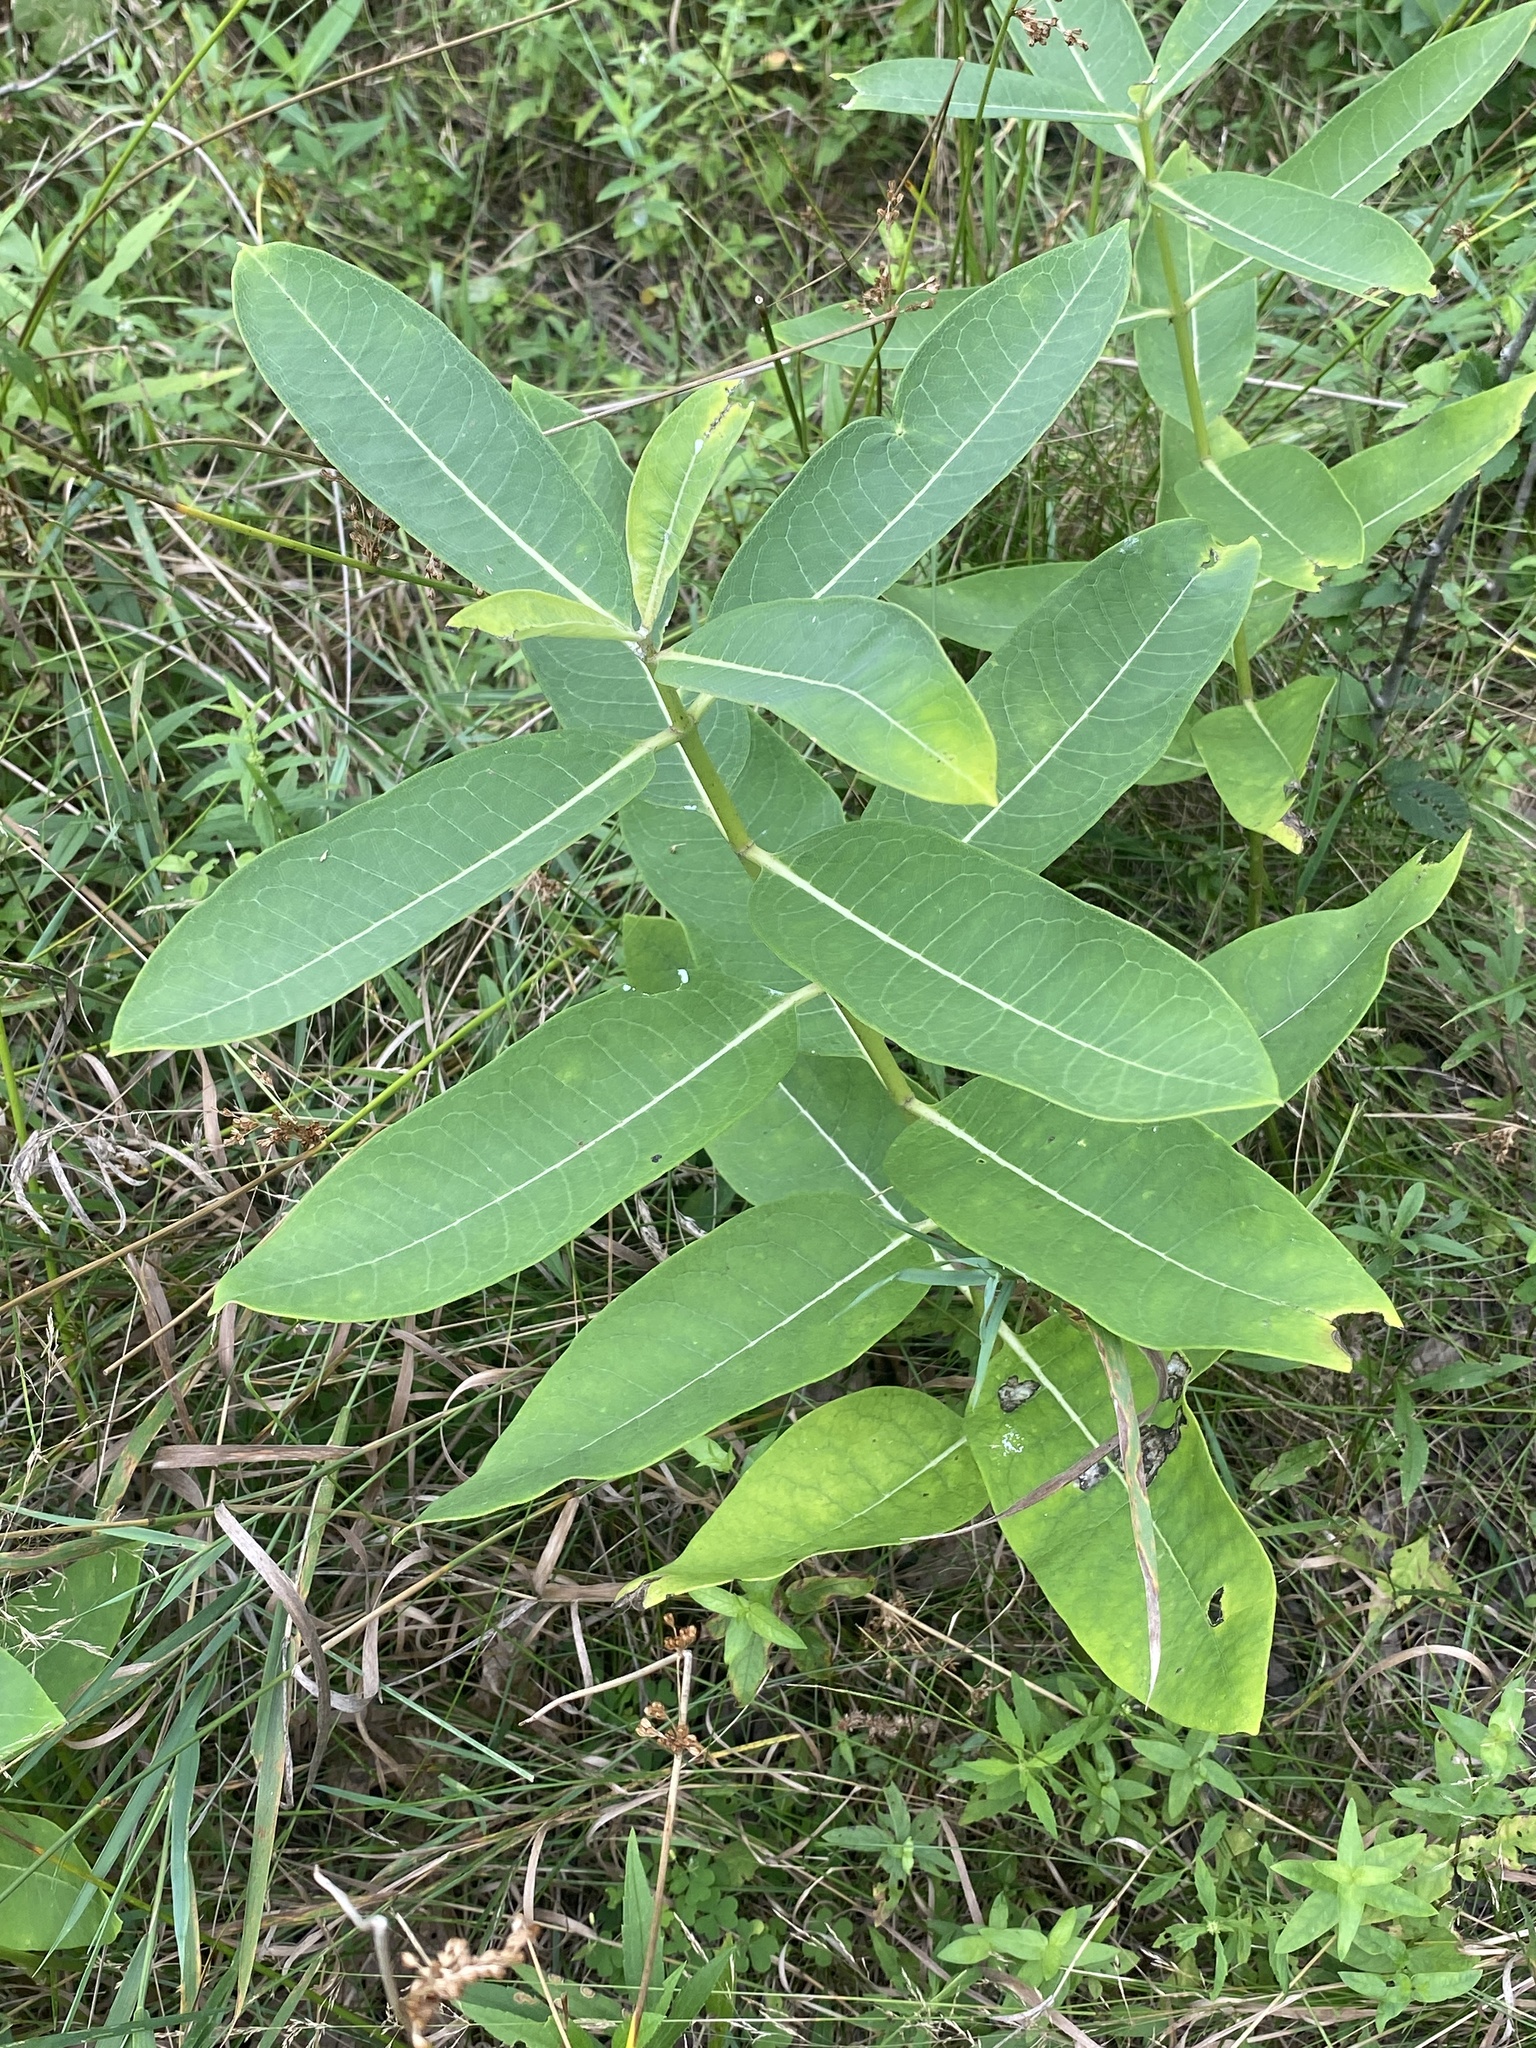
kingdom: Plantae
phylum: Tracheophyta
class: Magnoliopsida
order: Gentianales
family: Apocynaceae
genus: Asclepias
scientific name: Asclepias syriaca
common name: Common milkweed
